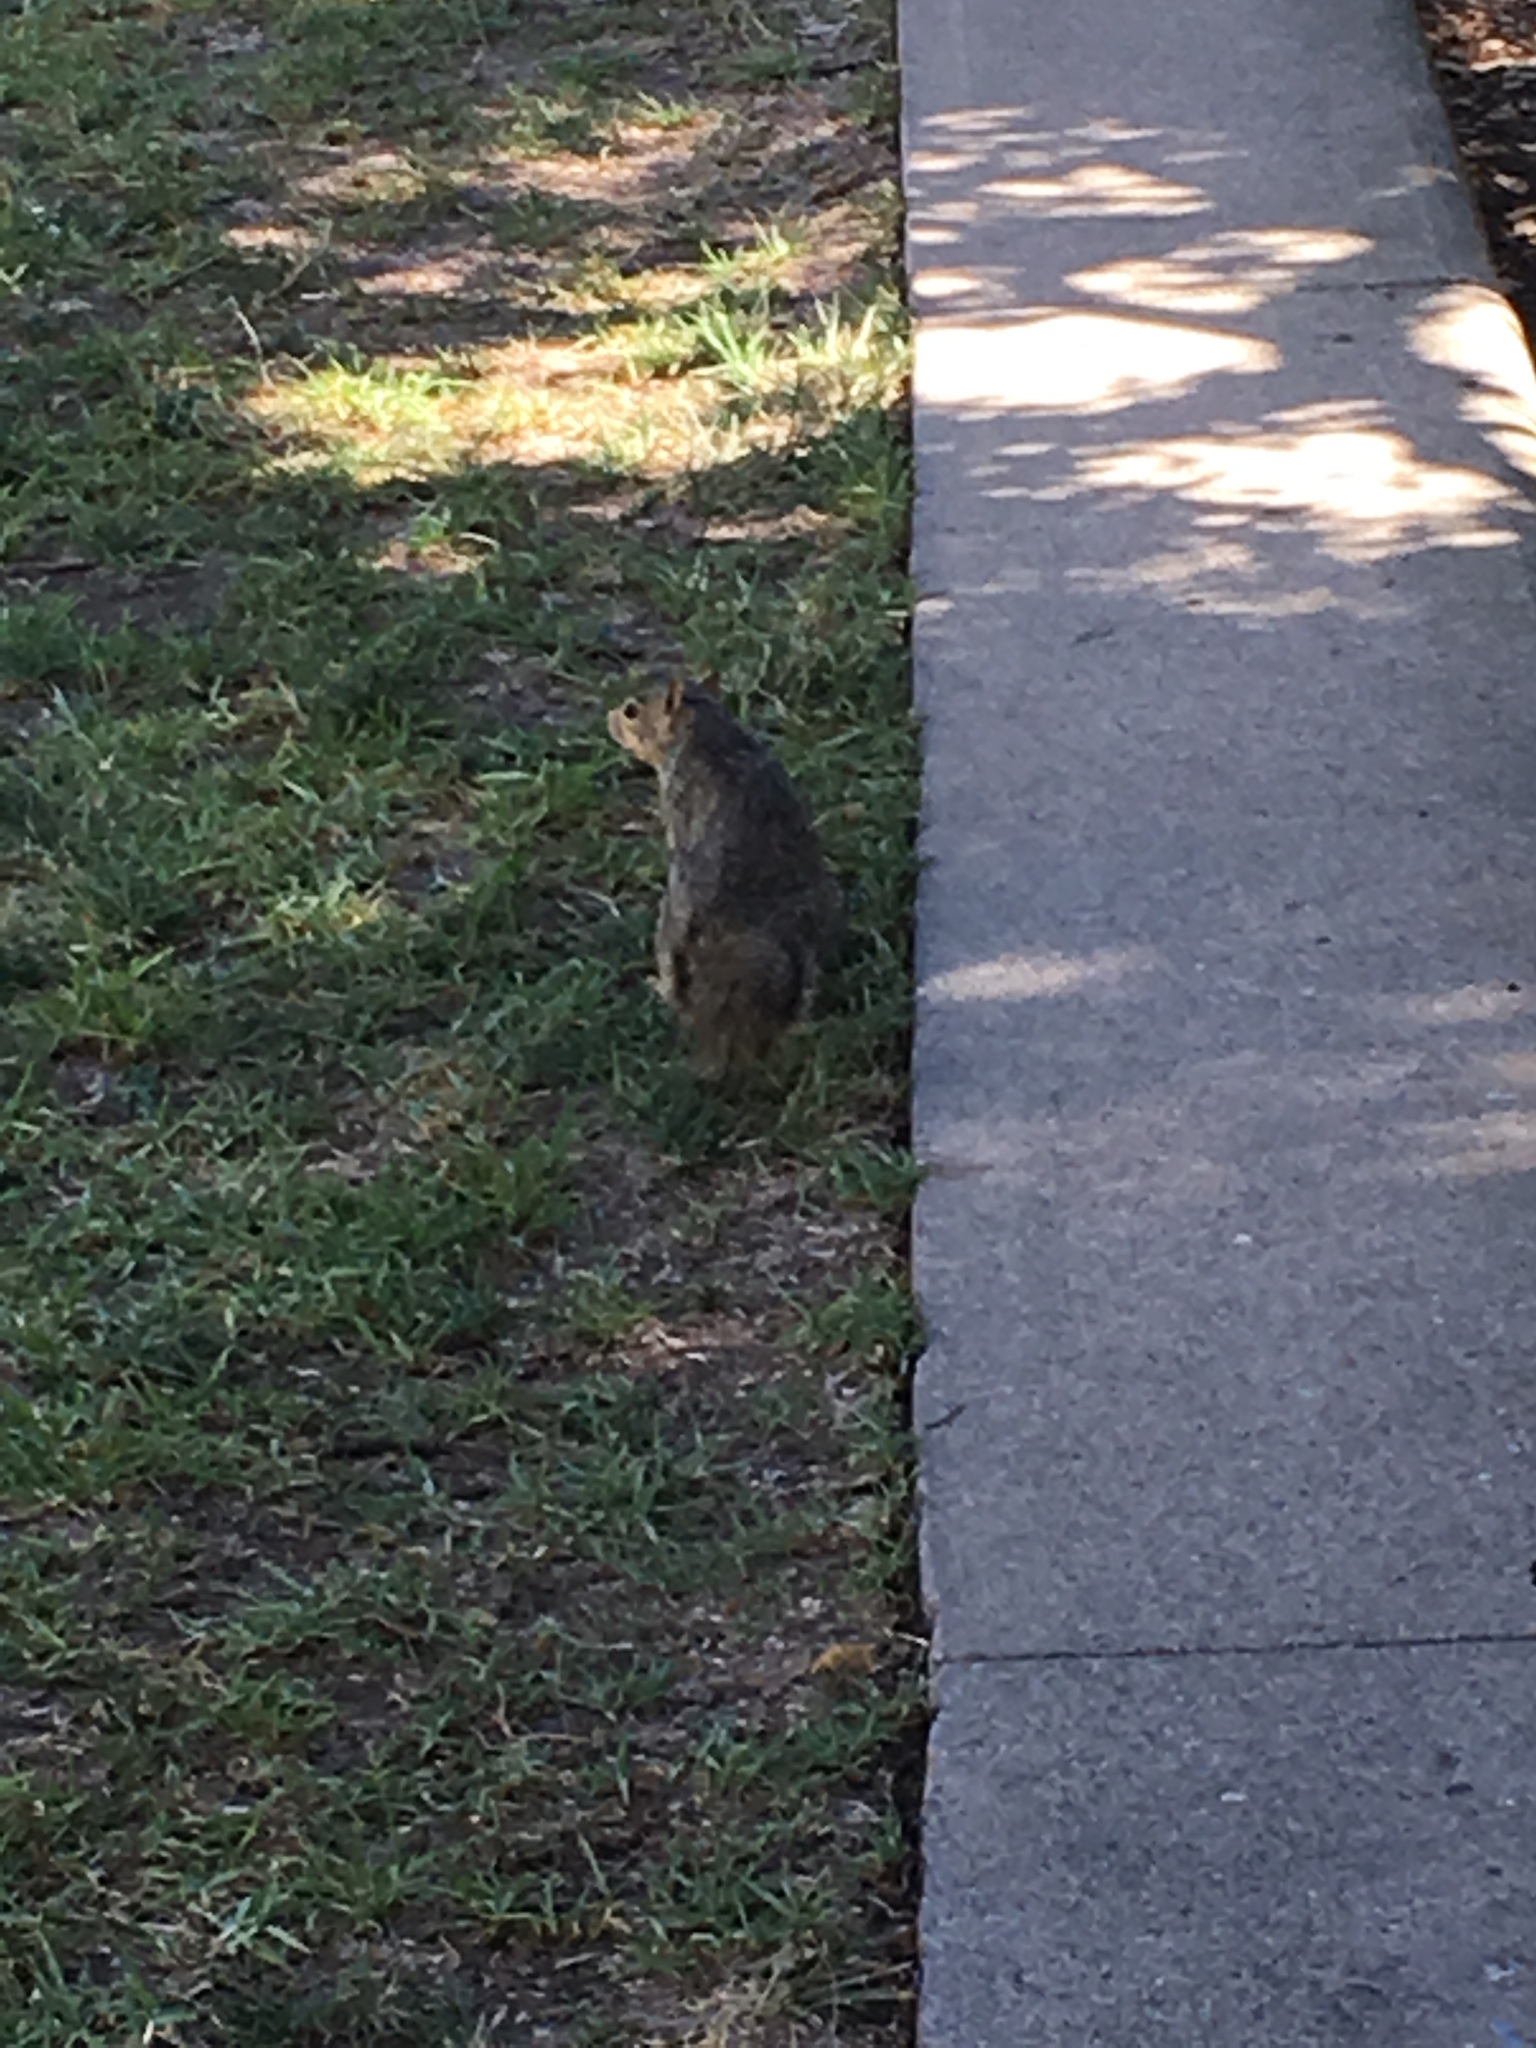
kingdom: Animalia
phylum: Chordata
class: Mammalia
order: Rodentia
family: Sciuridae
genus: Sciurus
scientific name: Sciurus niger
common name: Fox squirrel
